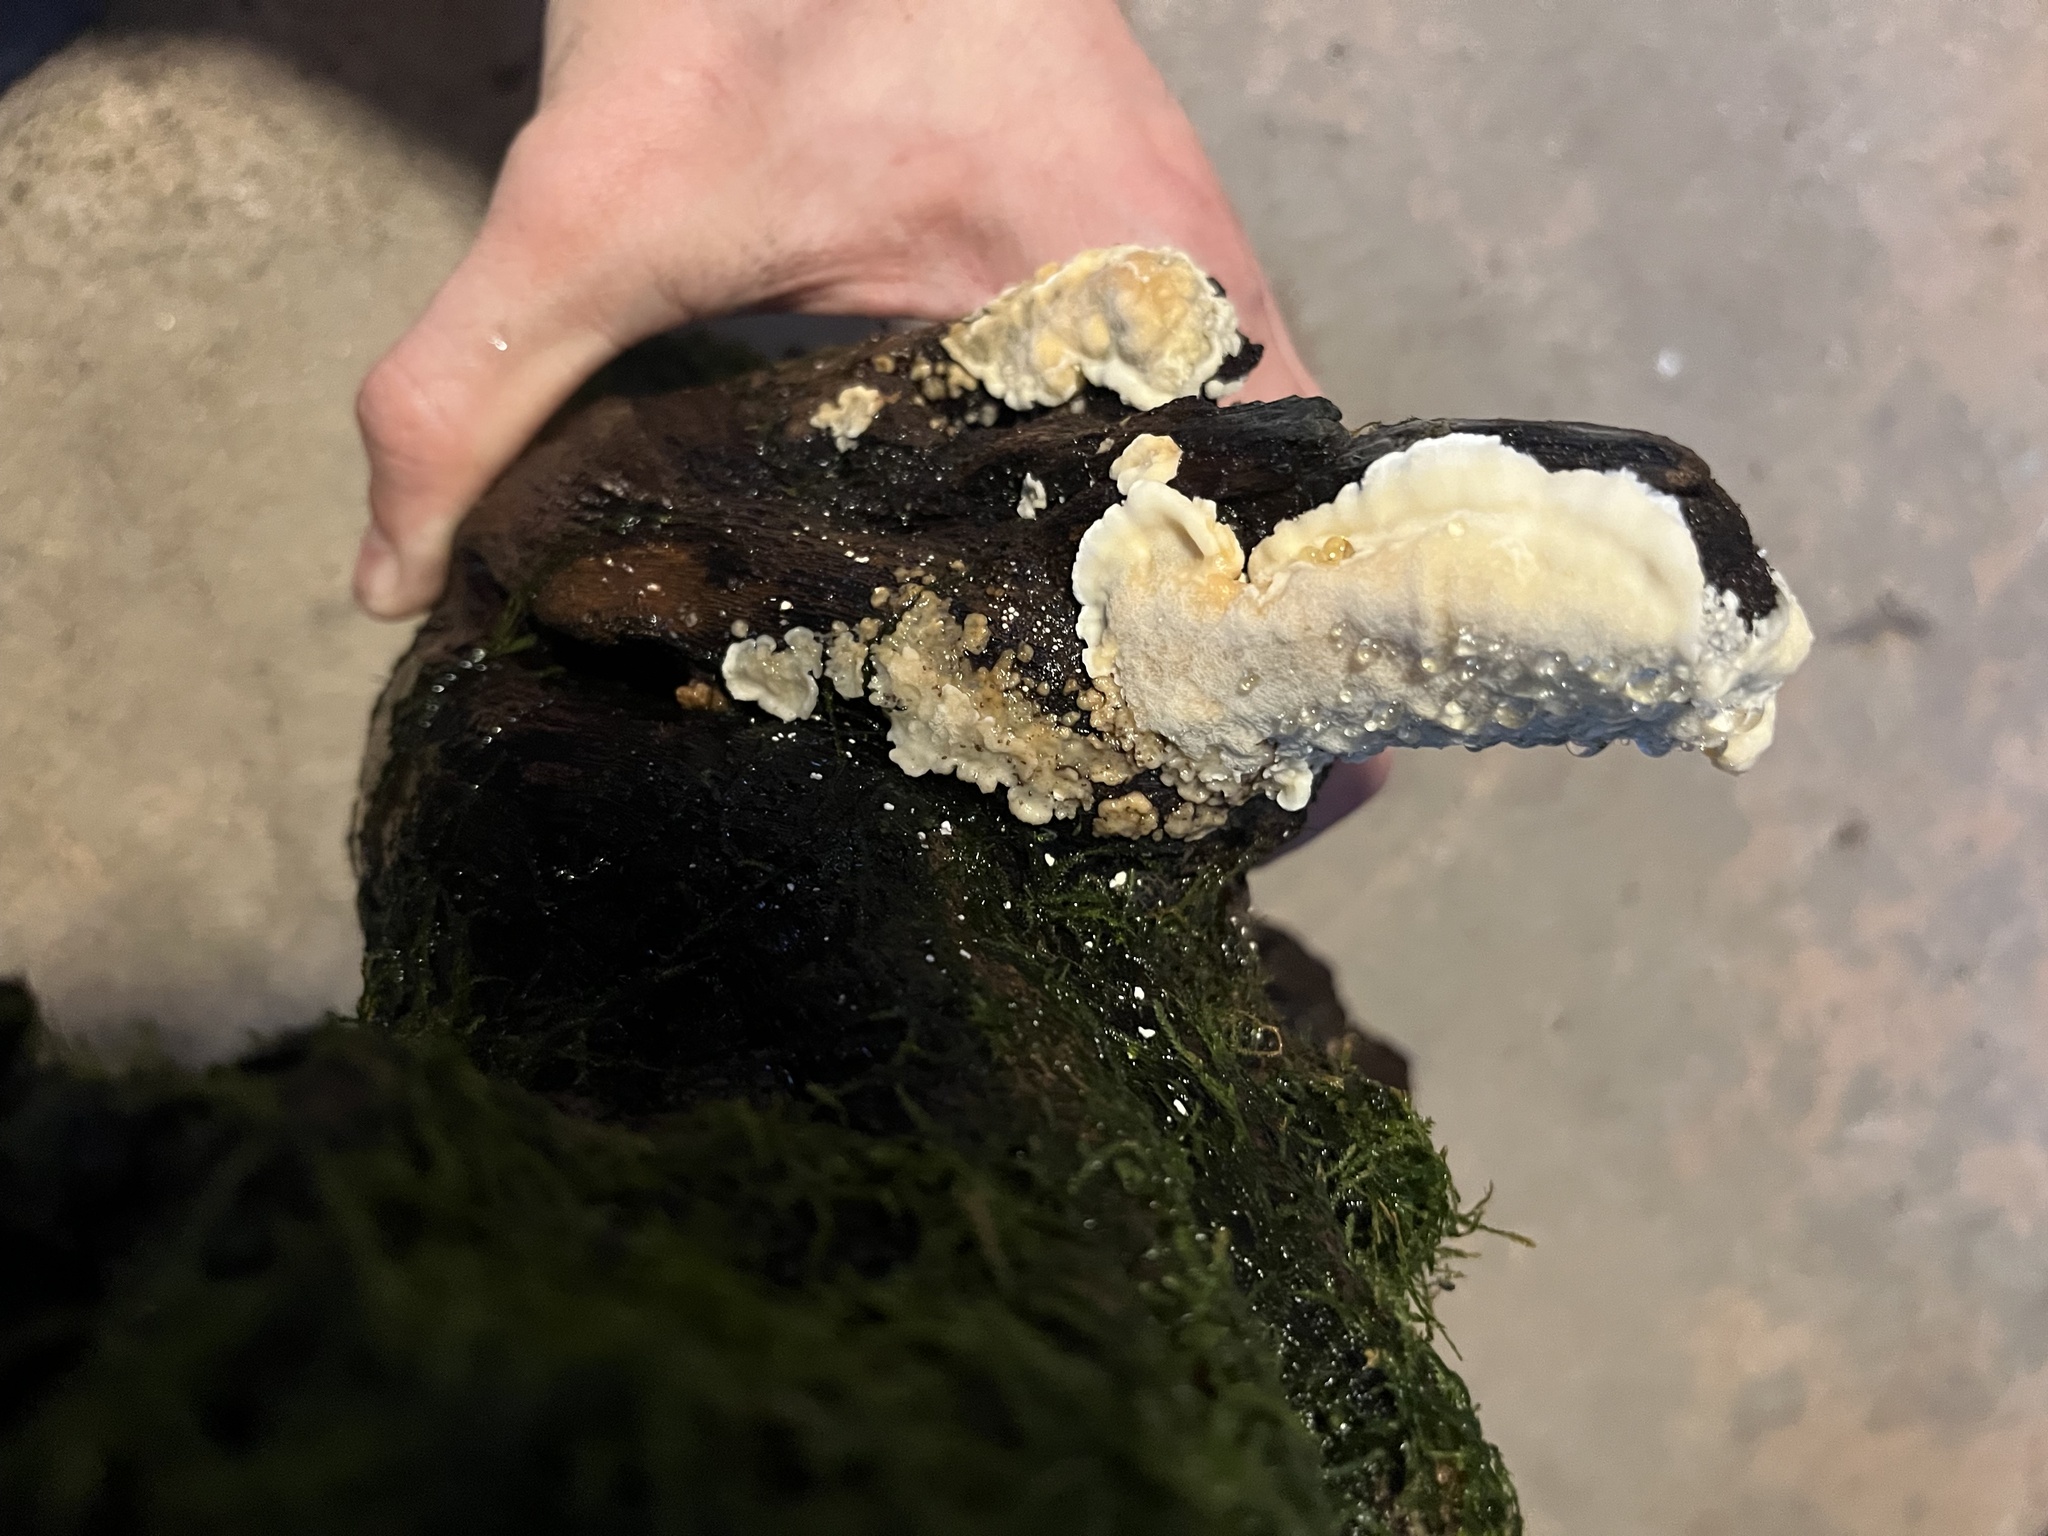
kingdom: Fungi
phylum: Basidiomycota
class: Agaricomycetes
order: Polyporales
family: Fomitopsidaceae
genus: Niveoporofomes
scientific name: Niveoporofomes spraguei
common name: Green cheese polypore
